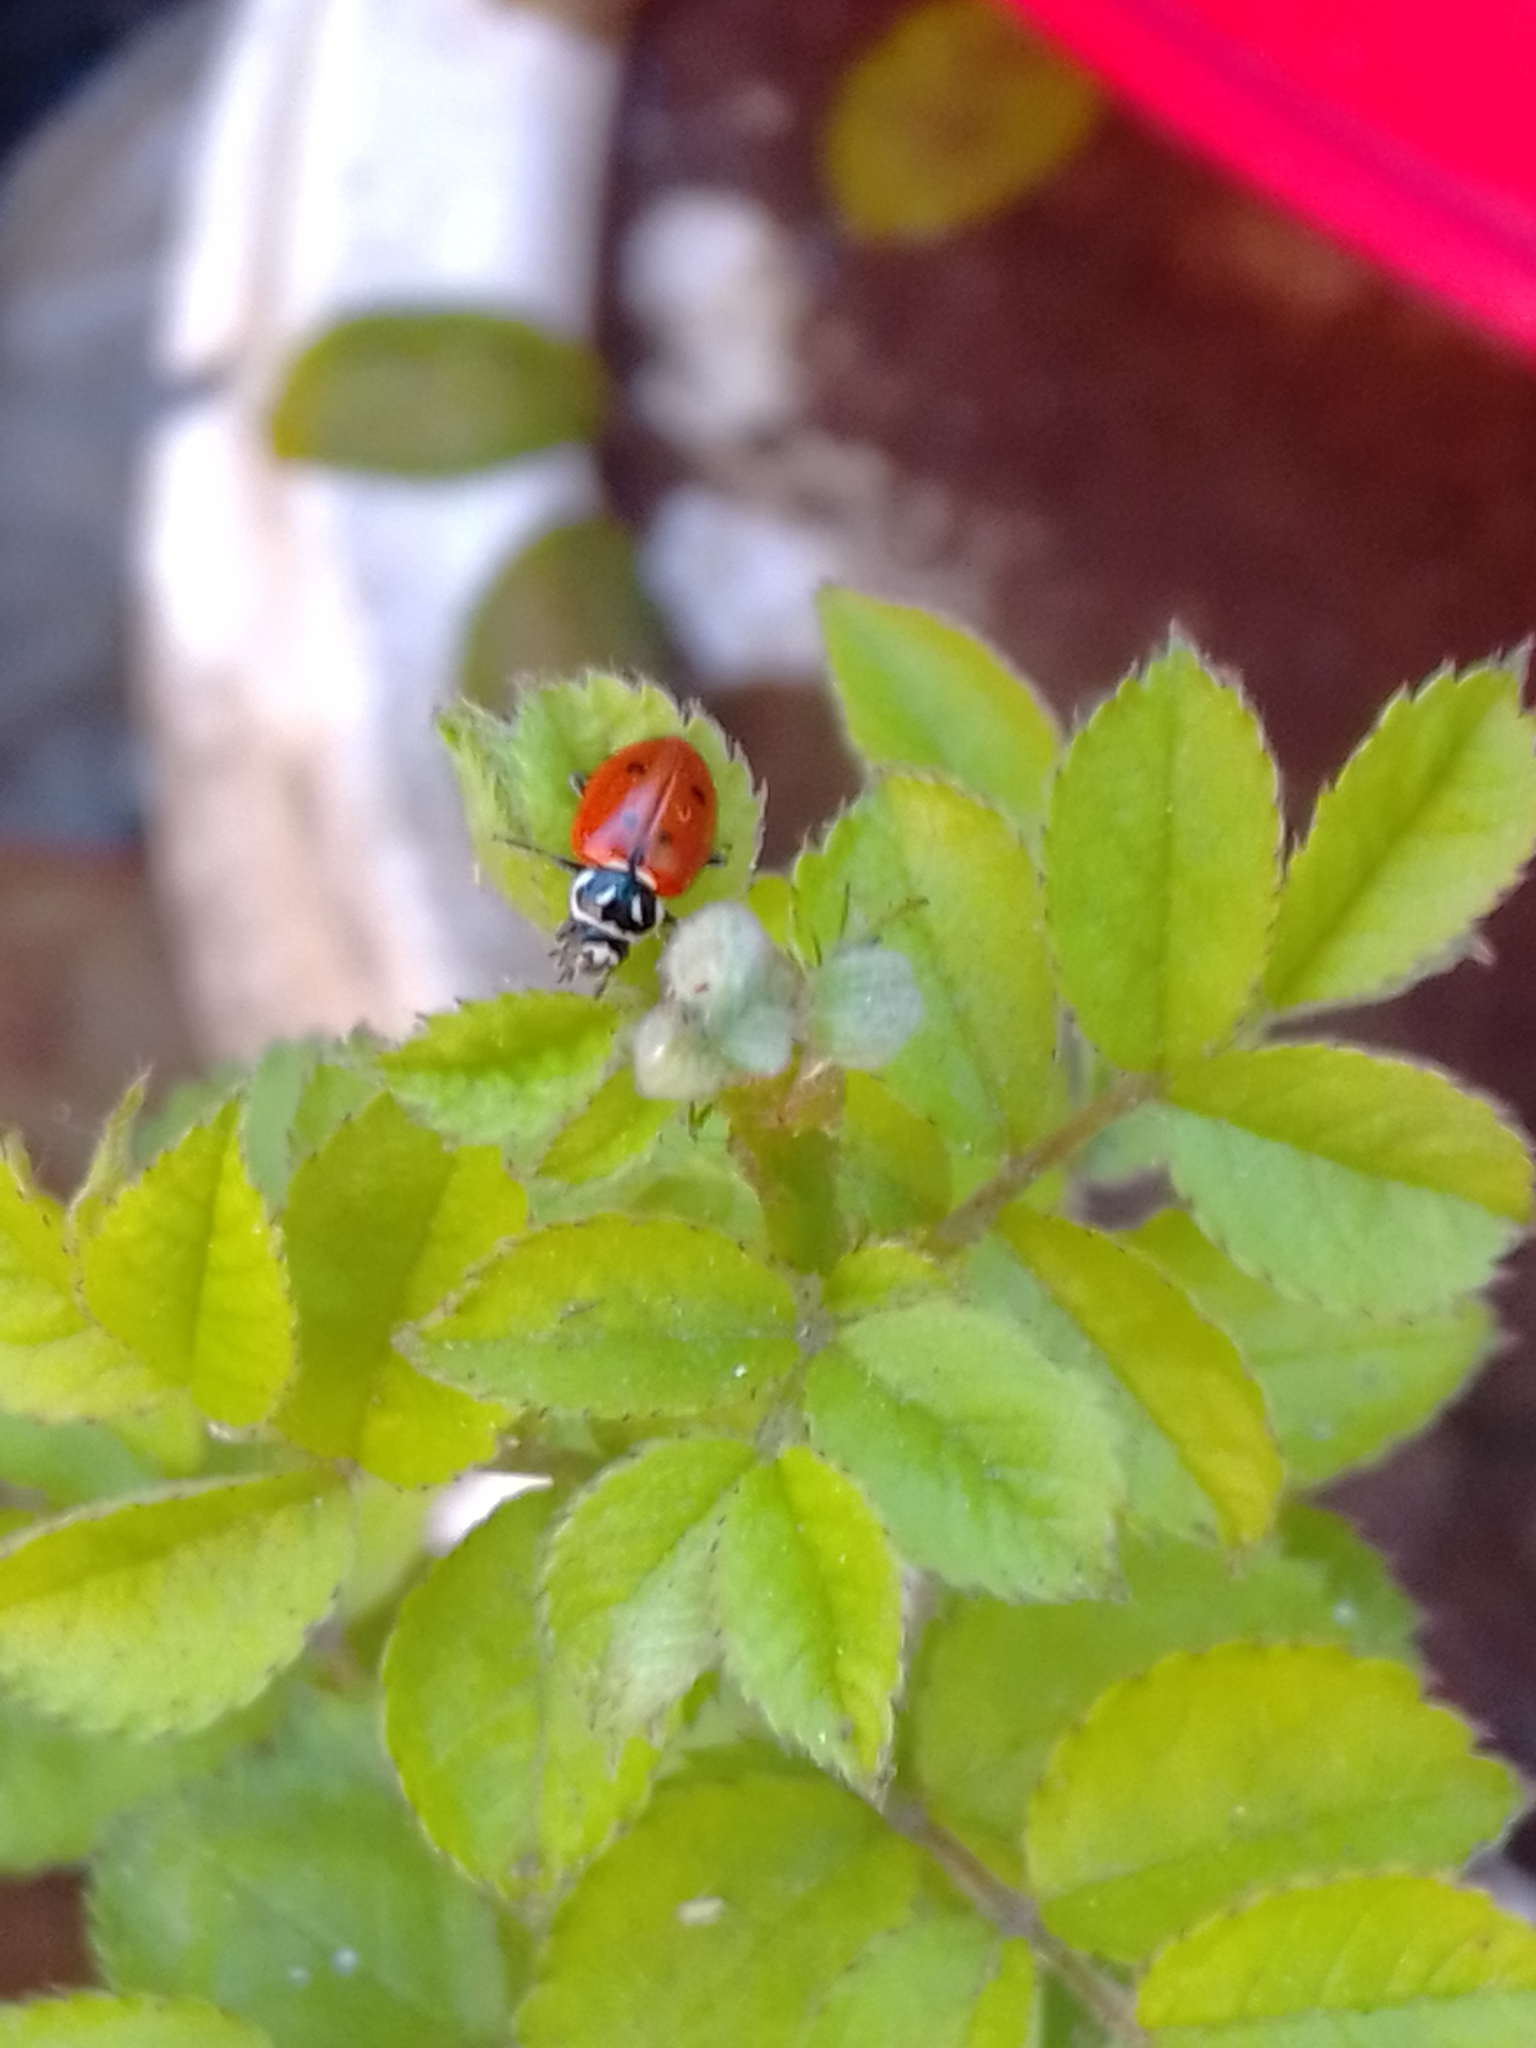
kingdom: Animalia
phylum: Arthropoda
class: Insecta
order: Coleoptera
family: Coccinellidae
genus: Hippodamia
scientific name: Hippodamia convergens
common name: Convergent lady beetle
